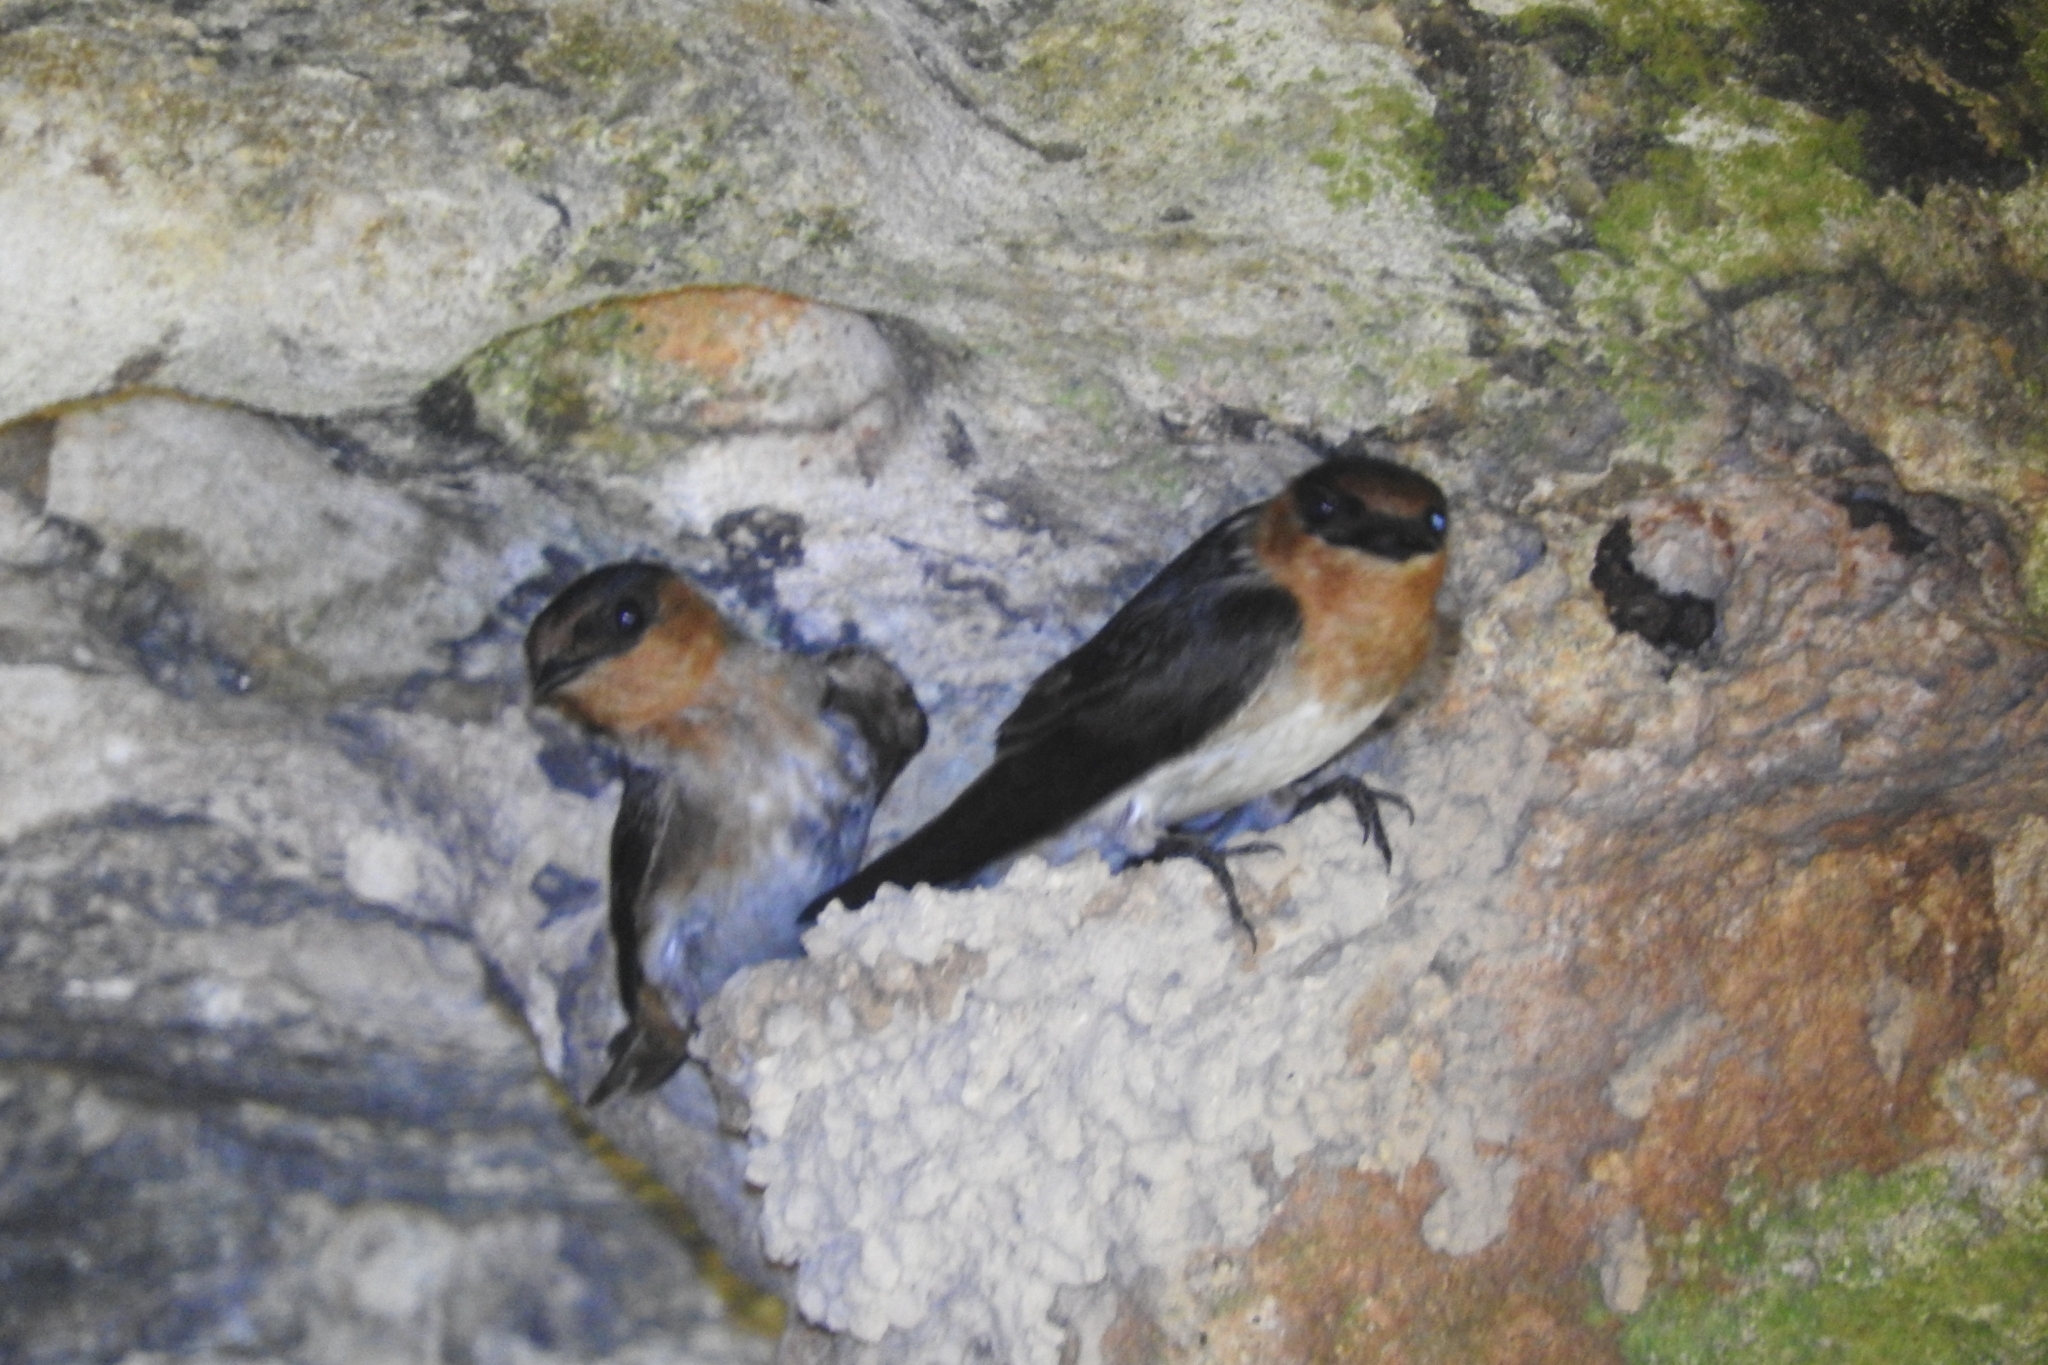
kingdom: Animalia
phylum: Chordata
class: Aves
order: Passeriformes
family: Hirundinidae
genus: Petrochelidon
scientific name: Petrochelidon fulva
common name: Cave swallow
